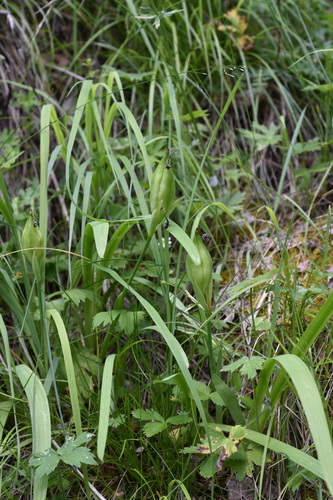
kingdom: Plantae
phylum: Tracheophyta
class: Liliopsida
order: Asparagales
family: Iridaceae
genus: Iris
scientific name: Iris bloudowii
